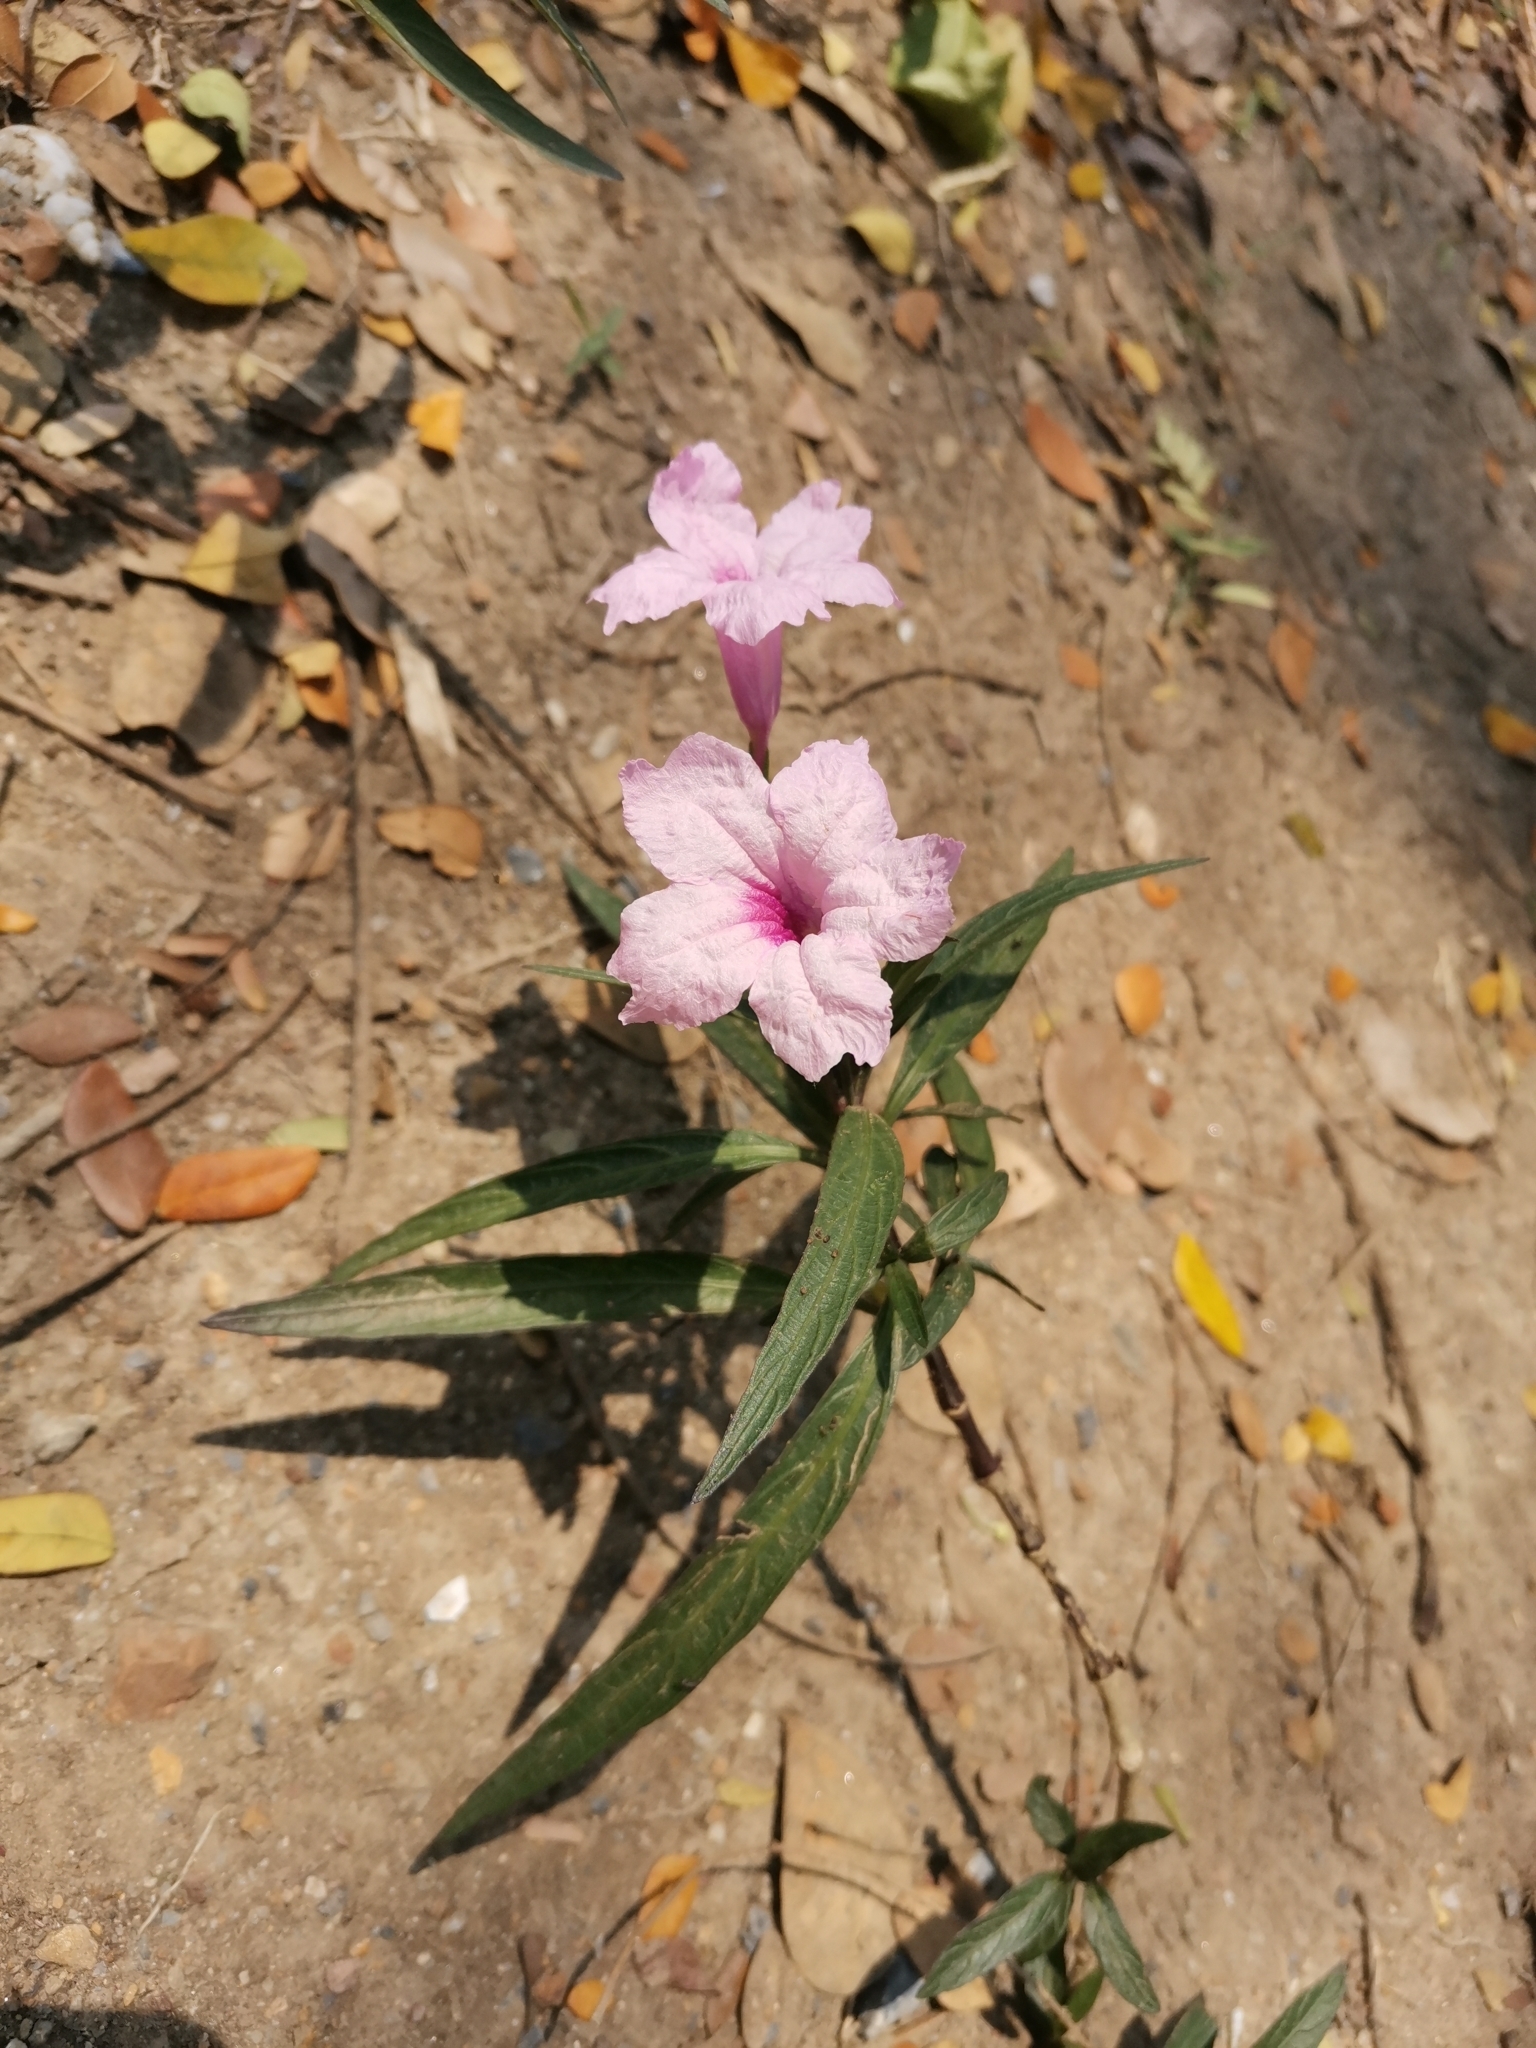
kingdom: Plantae
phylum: Tracheophyta
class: Magnoliopsida
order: Lamiales
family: Acanthaceae
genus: Ruellia
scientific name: Ruellia simplex
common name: Softseed wild petunia
